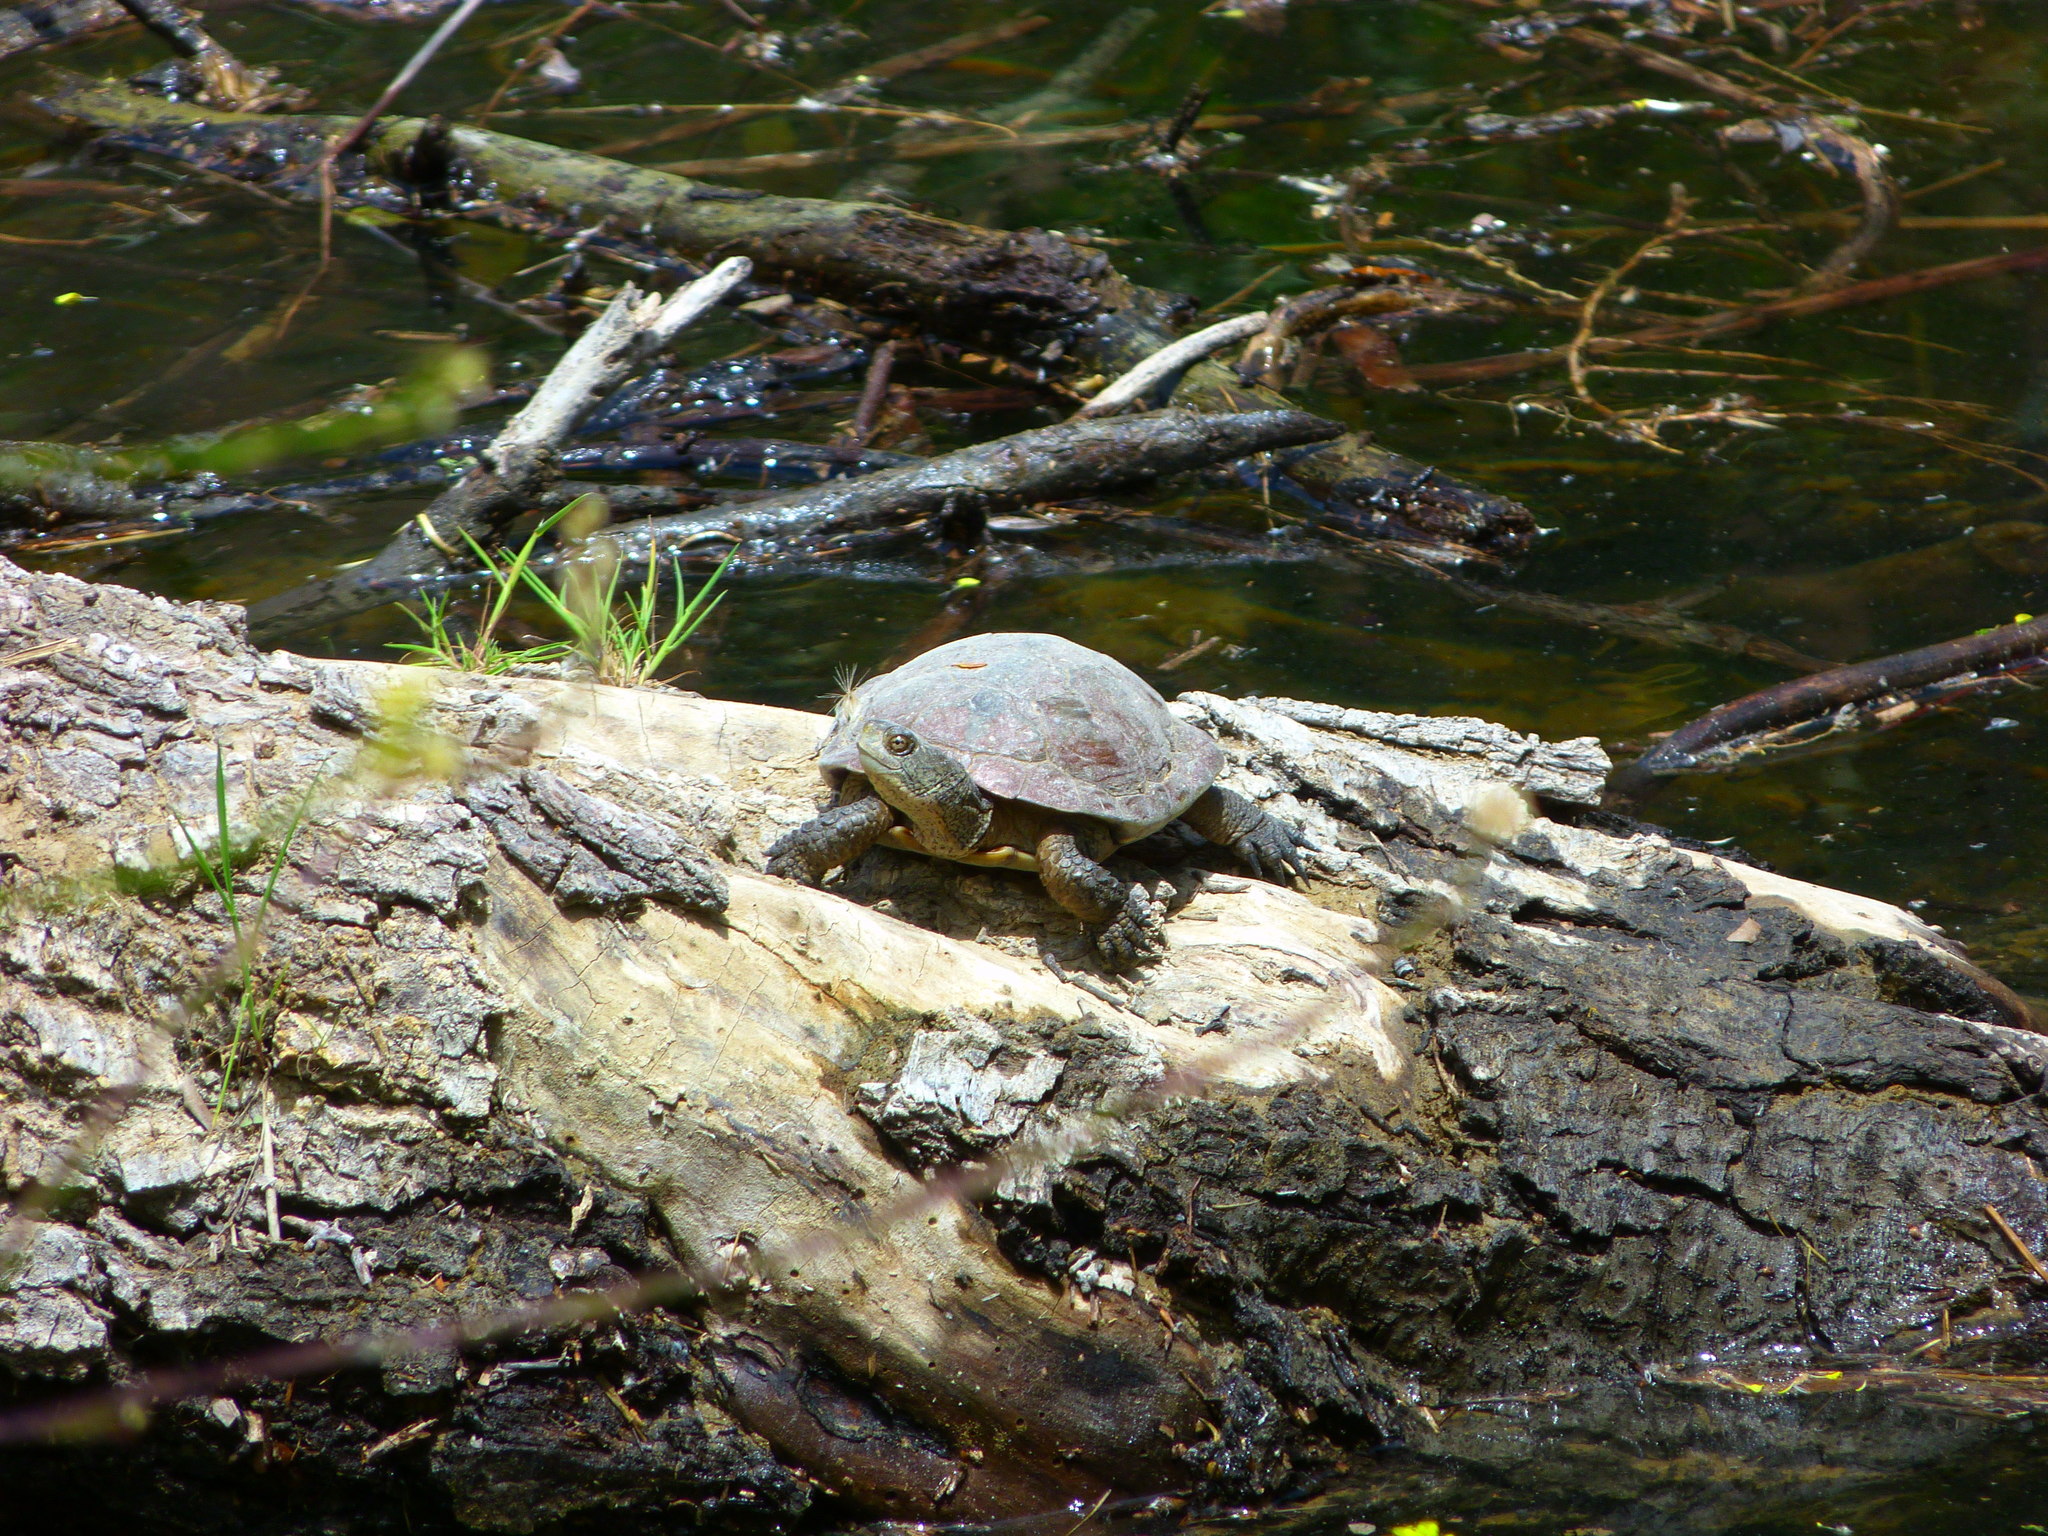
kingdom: Animalia
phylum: Chordata
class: Testudines
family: Emydidae
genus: Actinemys
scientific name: Actinemys marmorata
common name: Western pond turtle
